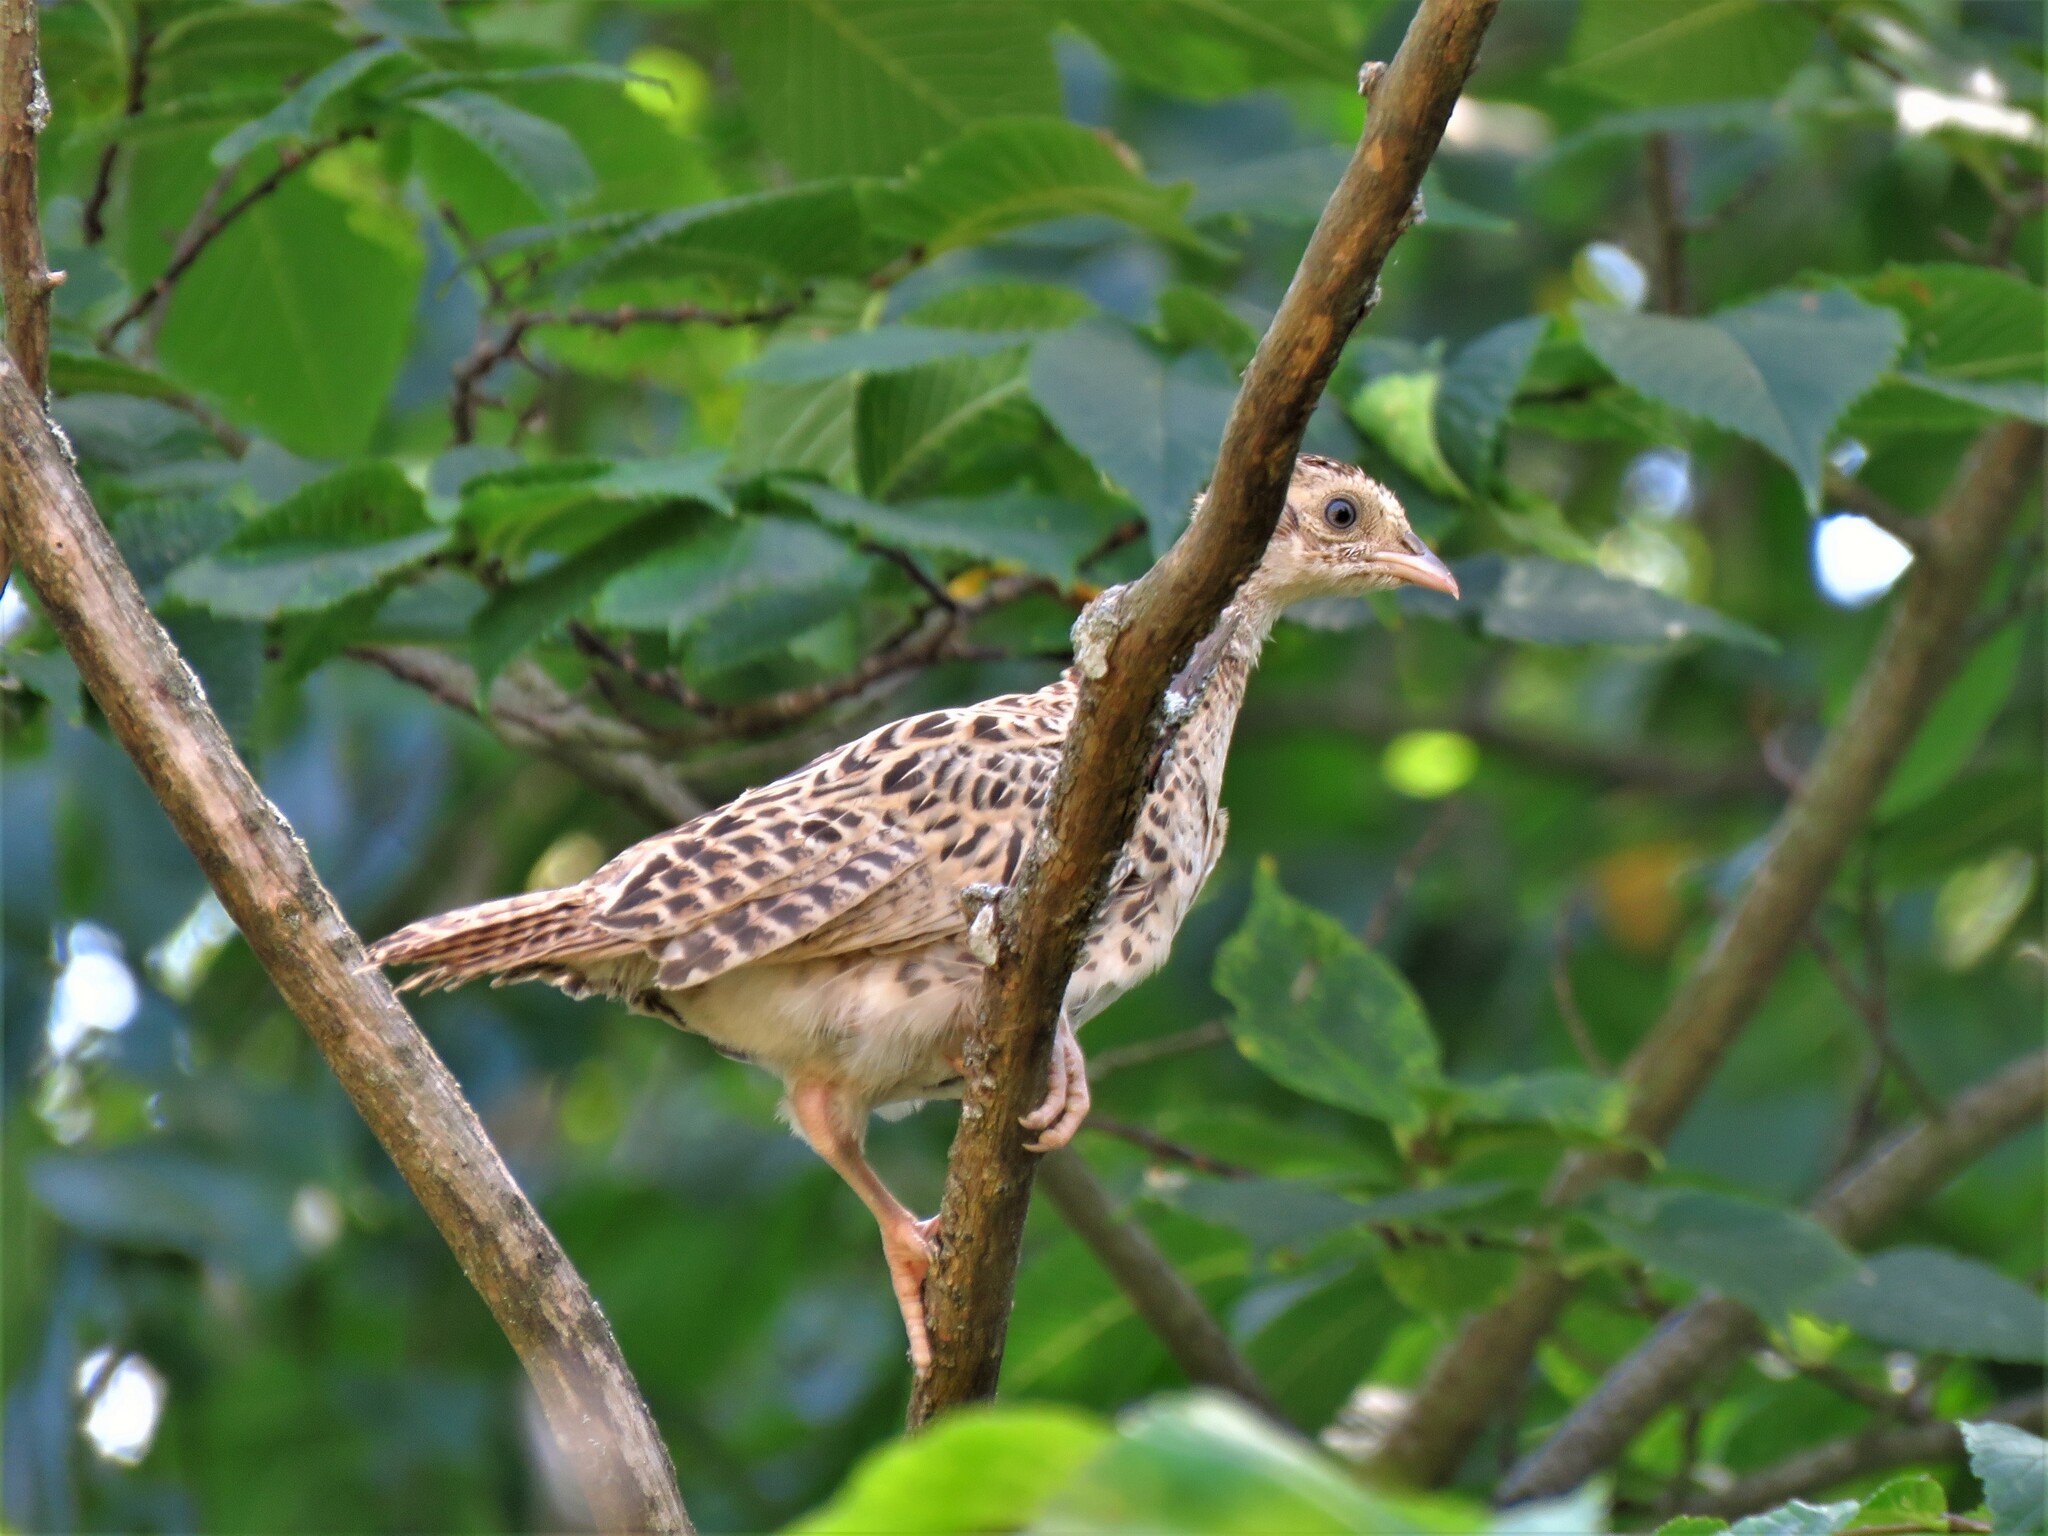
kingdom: Animalia
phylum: Chordata
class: Aves
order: Galliformes
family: Phasianidae
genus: Phasianus
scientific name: Phasianus colchicus
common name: Common pheasant
